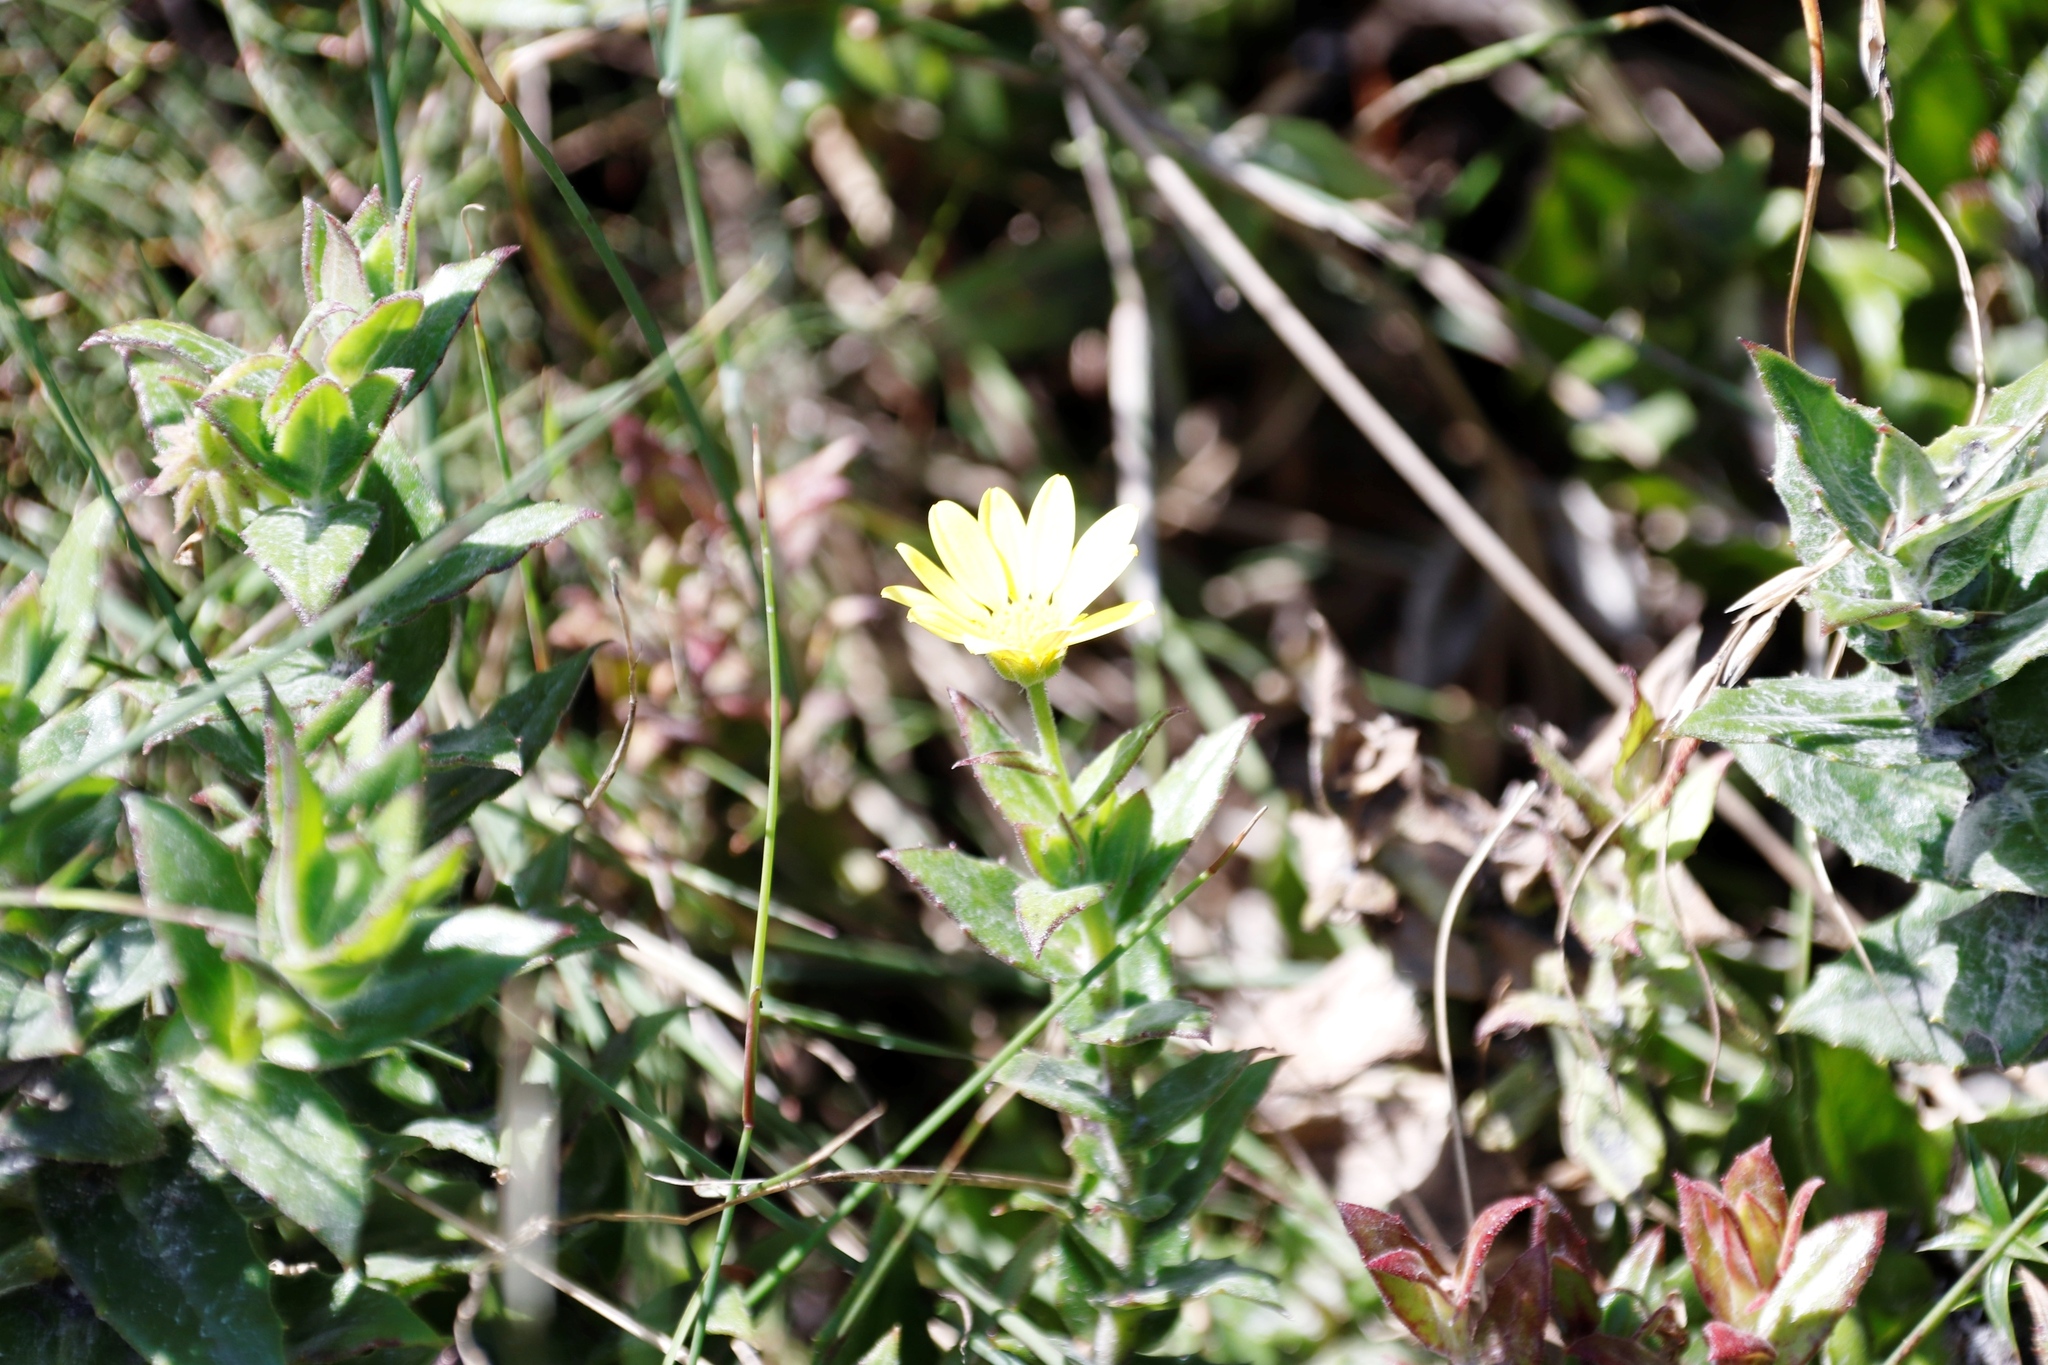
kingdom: Plantae
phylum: Tracheophyta
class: Magnoliopsida
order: Asterales
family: Asteraceae
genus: Osteospermum
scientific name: Osteospermum ilicifolium
